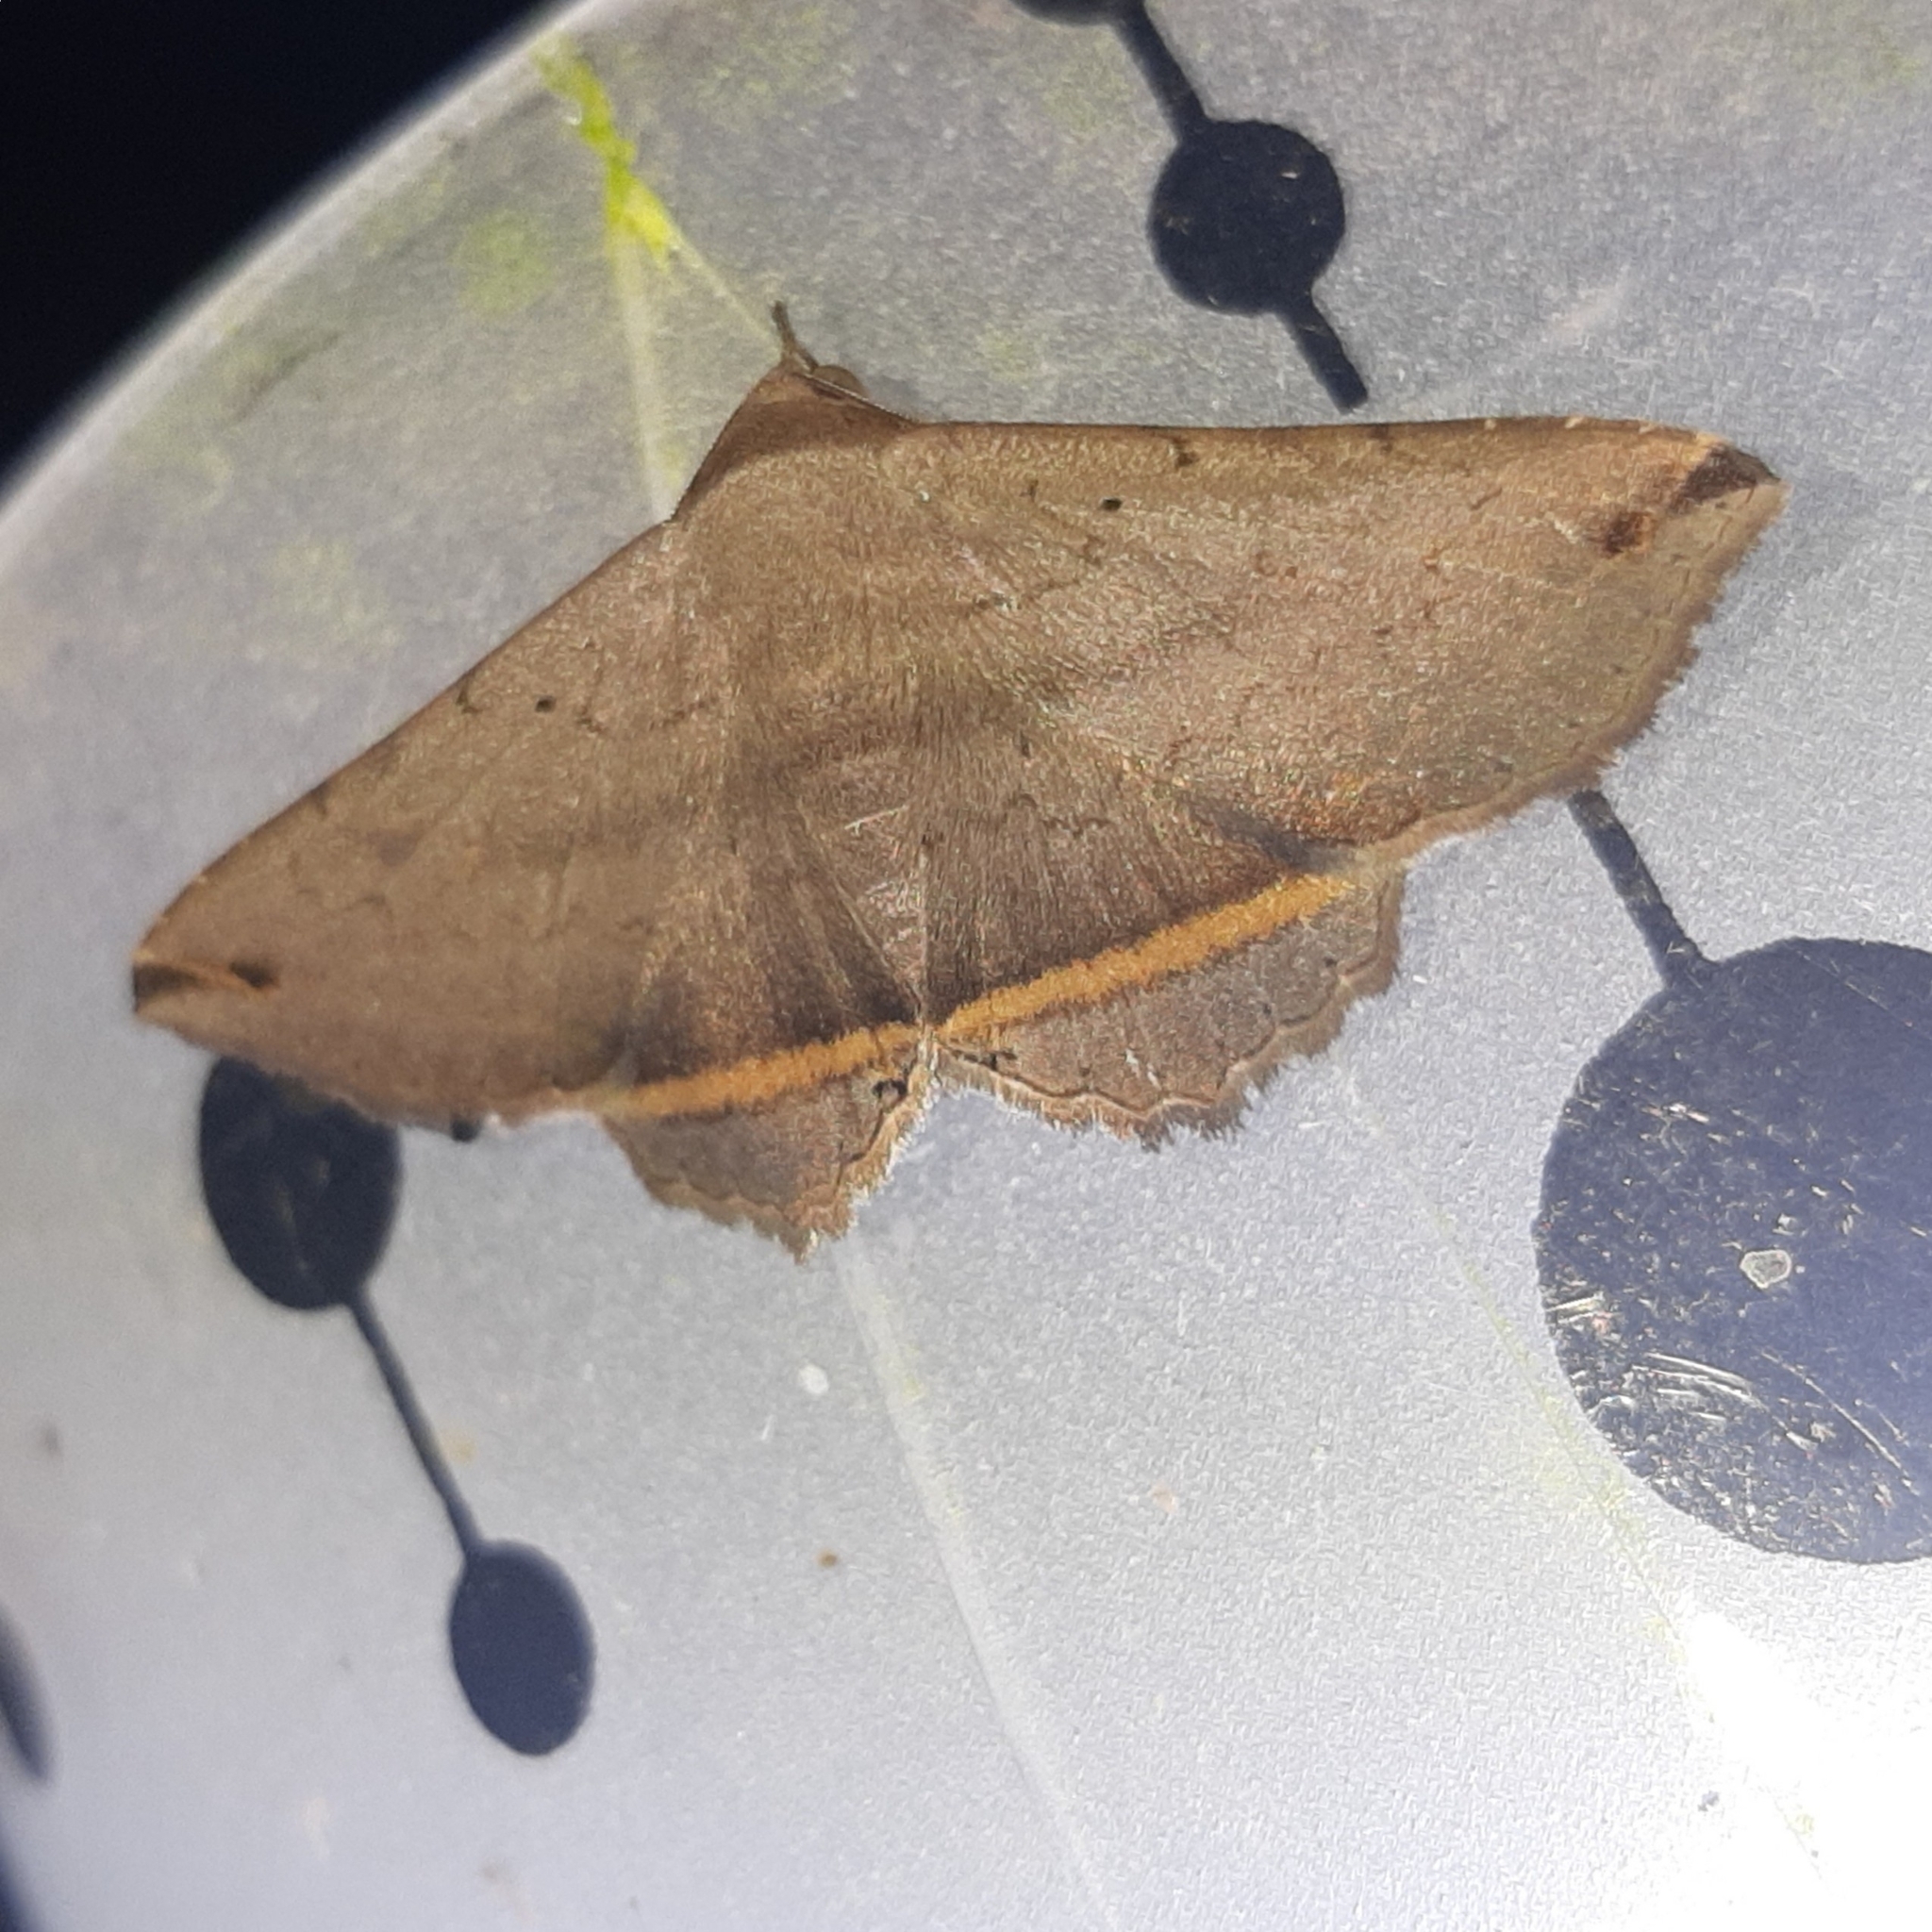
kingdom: Animalia
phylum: Arthropoda
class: Insecta
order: Lepidoptera
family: Erebidae
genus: Lesmone
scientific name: Lesmone formularis
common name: Lesmone moth
